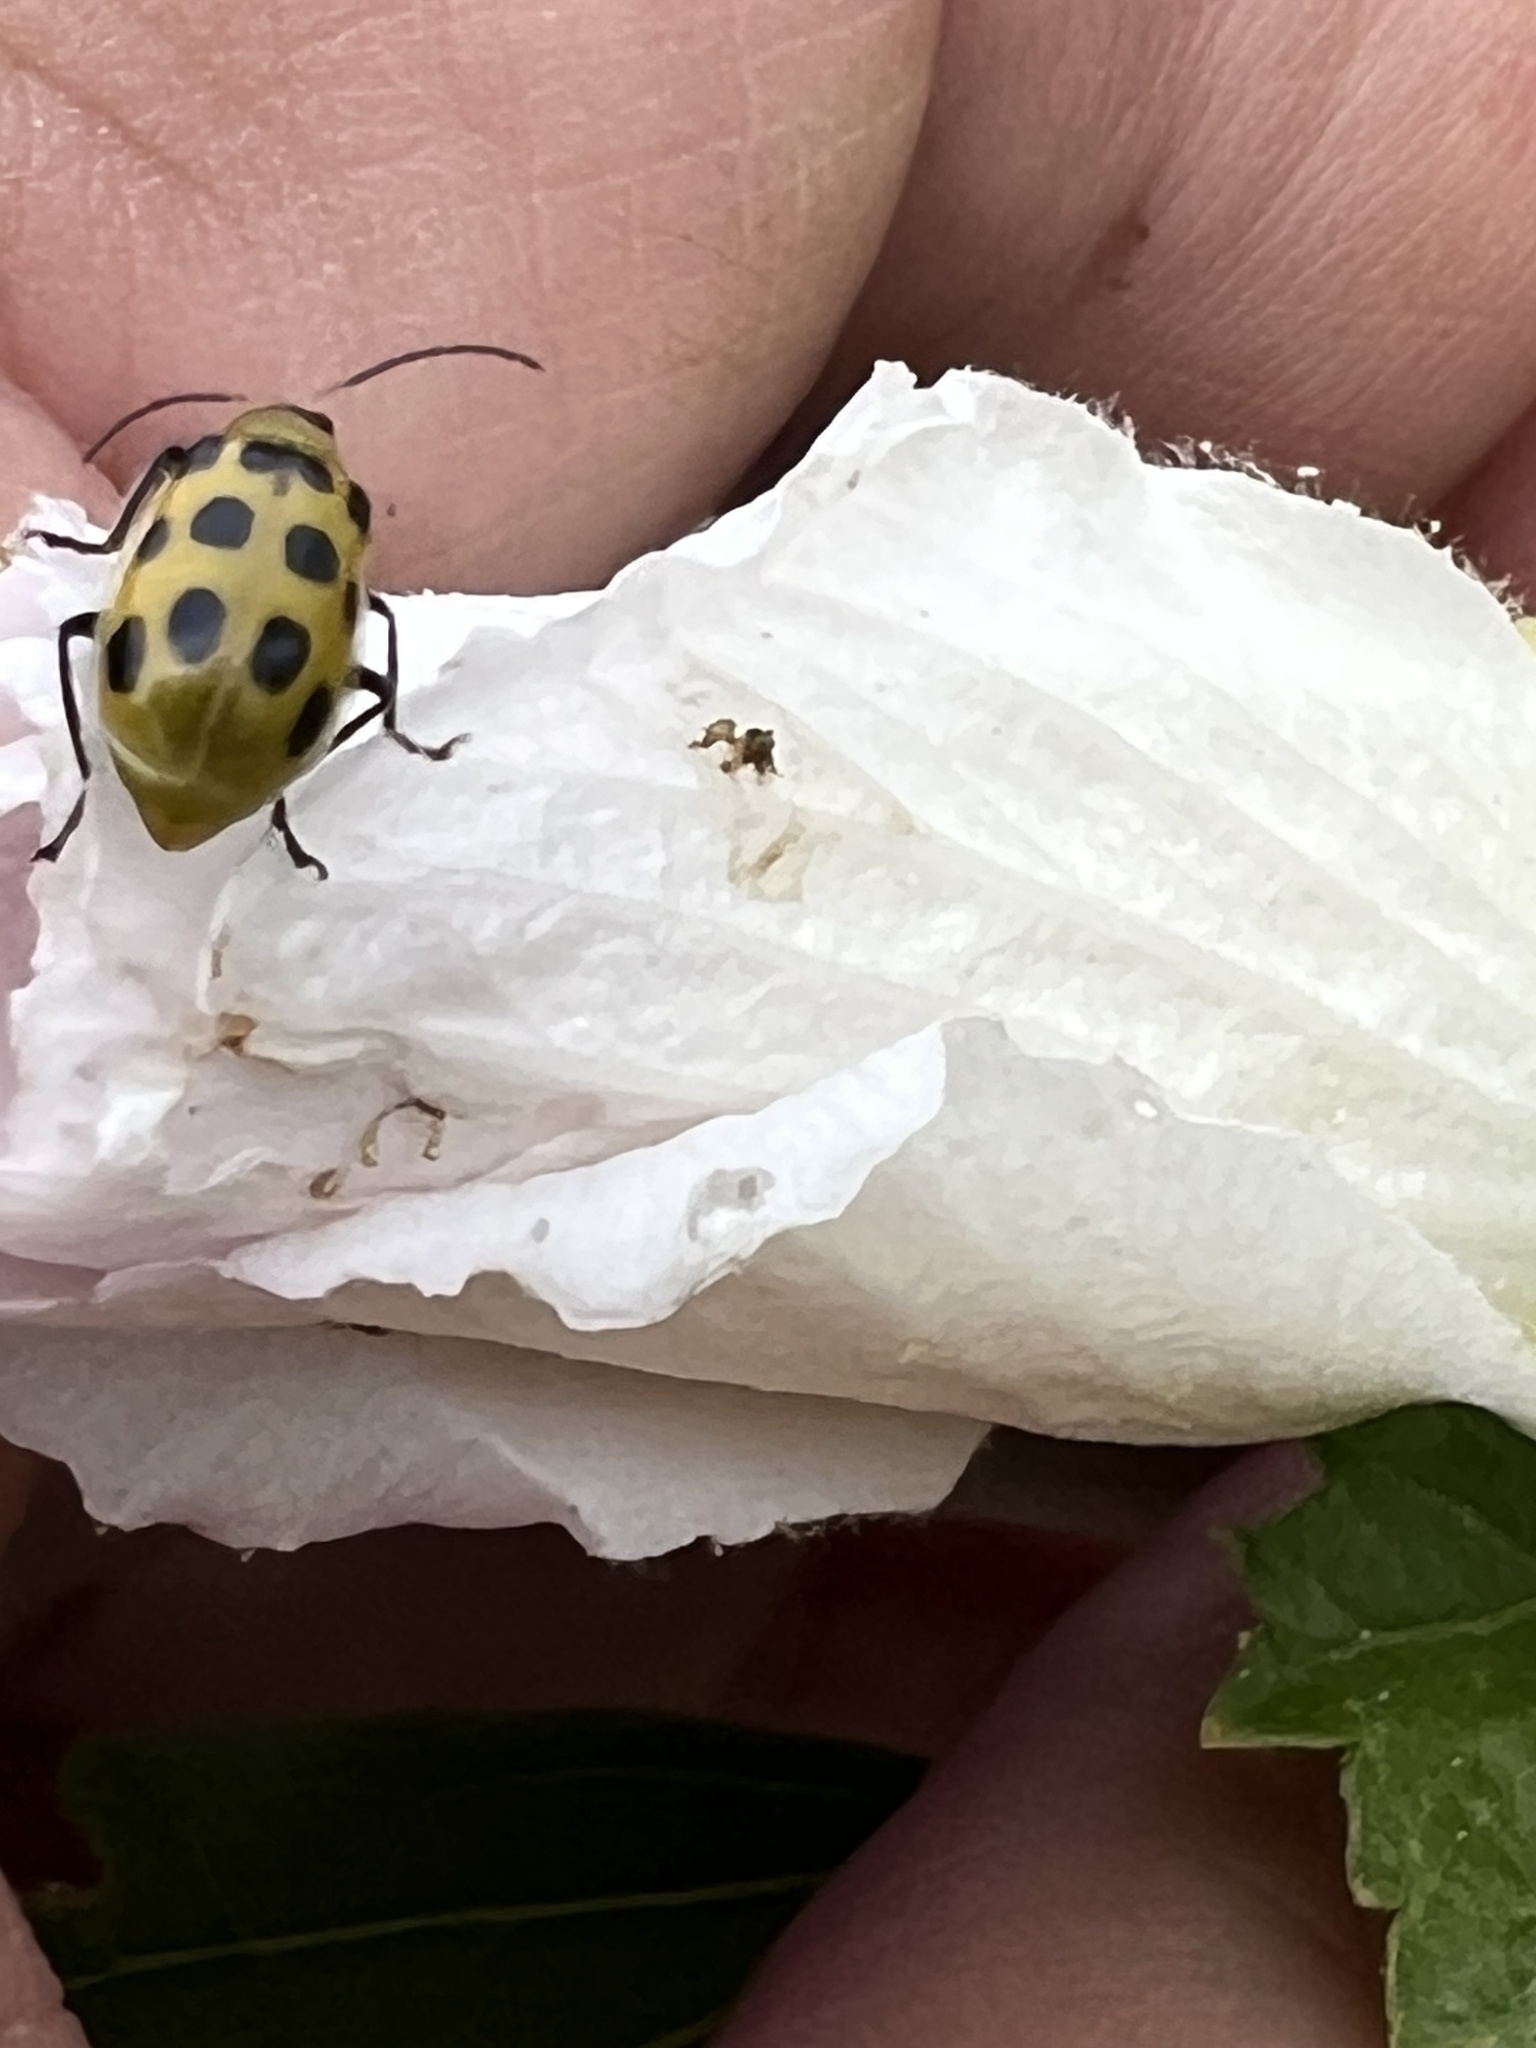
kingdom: Animalia
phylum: Arthropoda
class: Insecta
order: Coleoptera
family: Chrysomelidae
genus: Diabrotica
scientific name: Diabrotica undecimpunctata
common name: Spotted cucumber beetle
